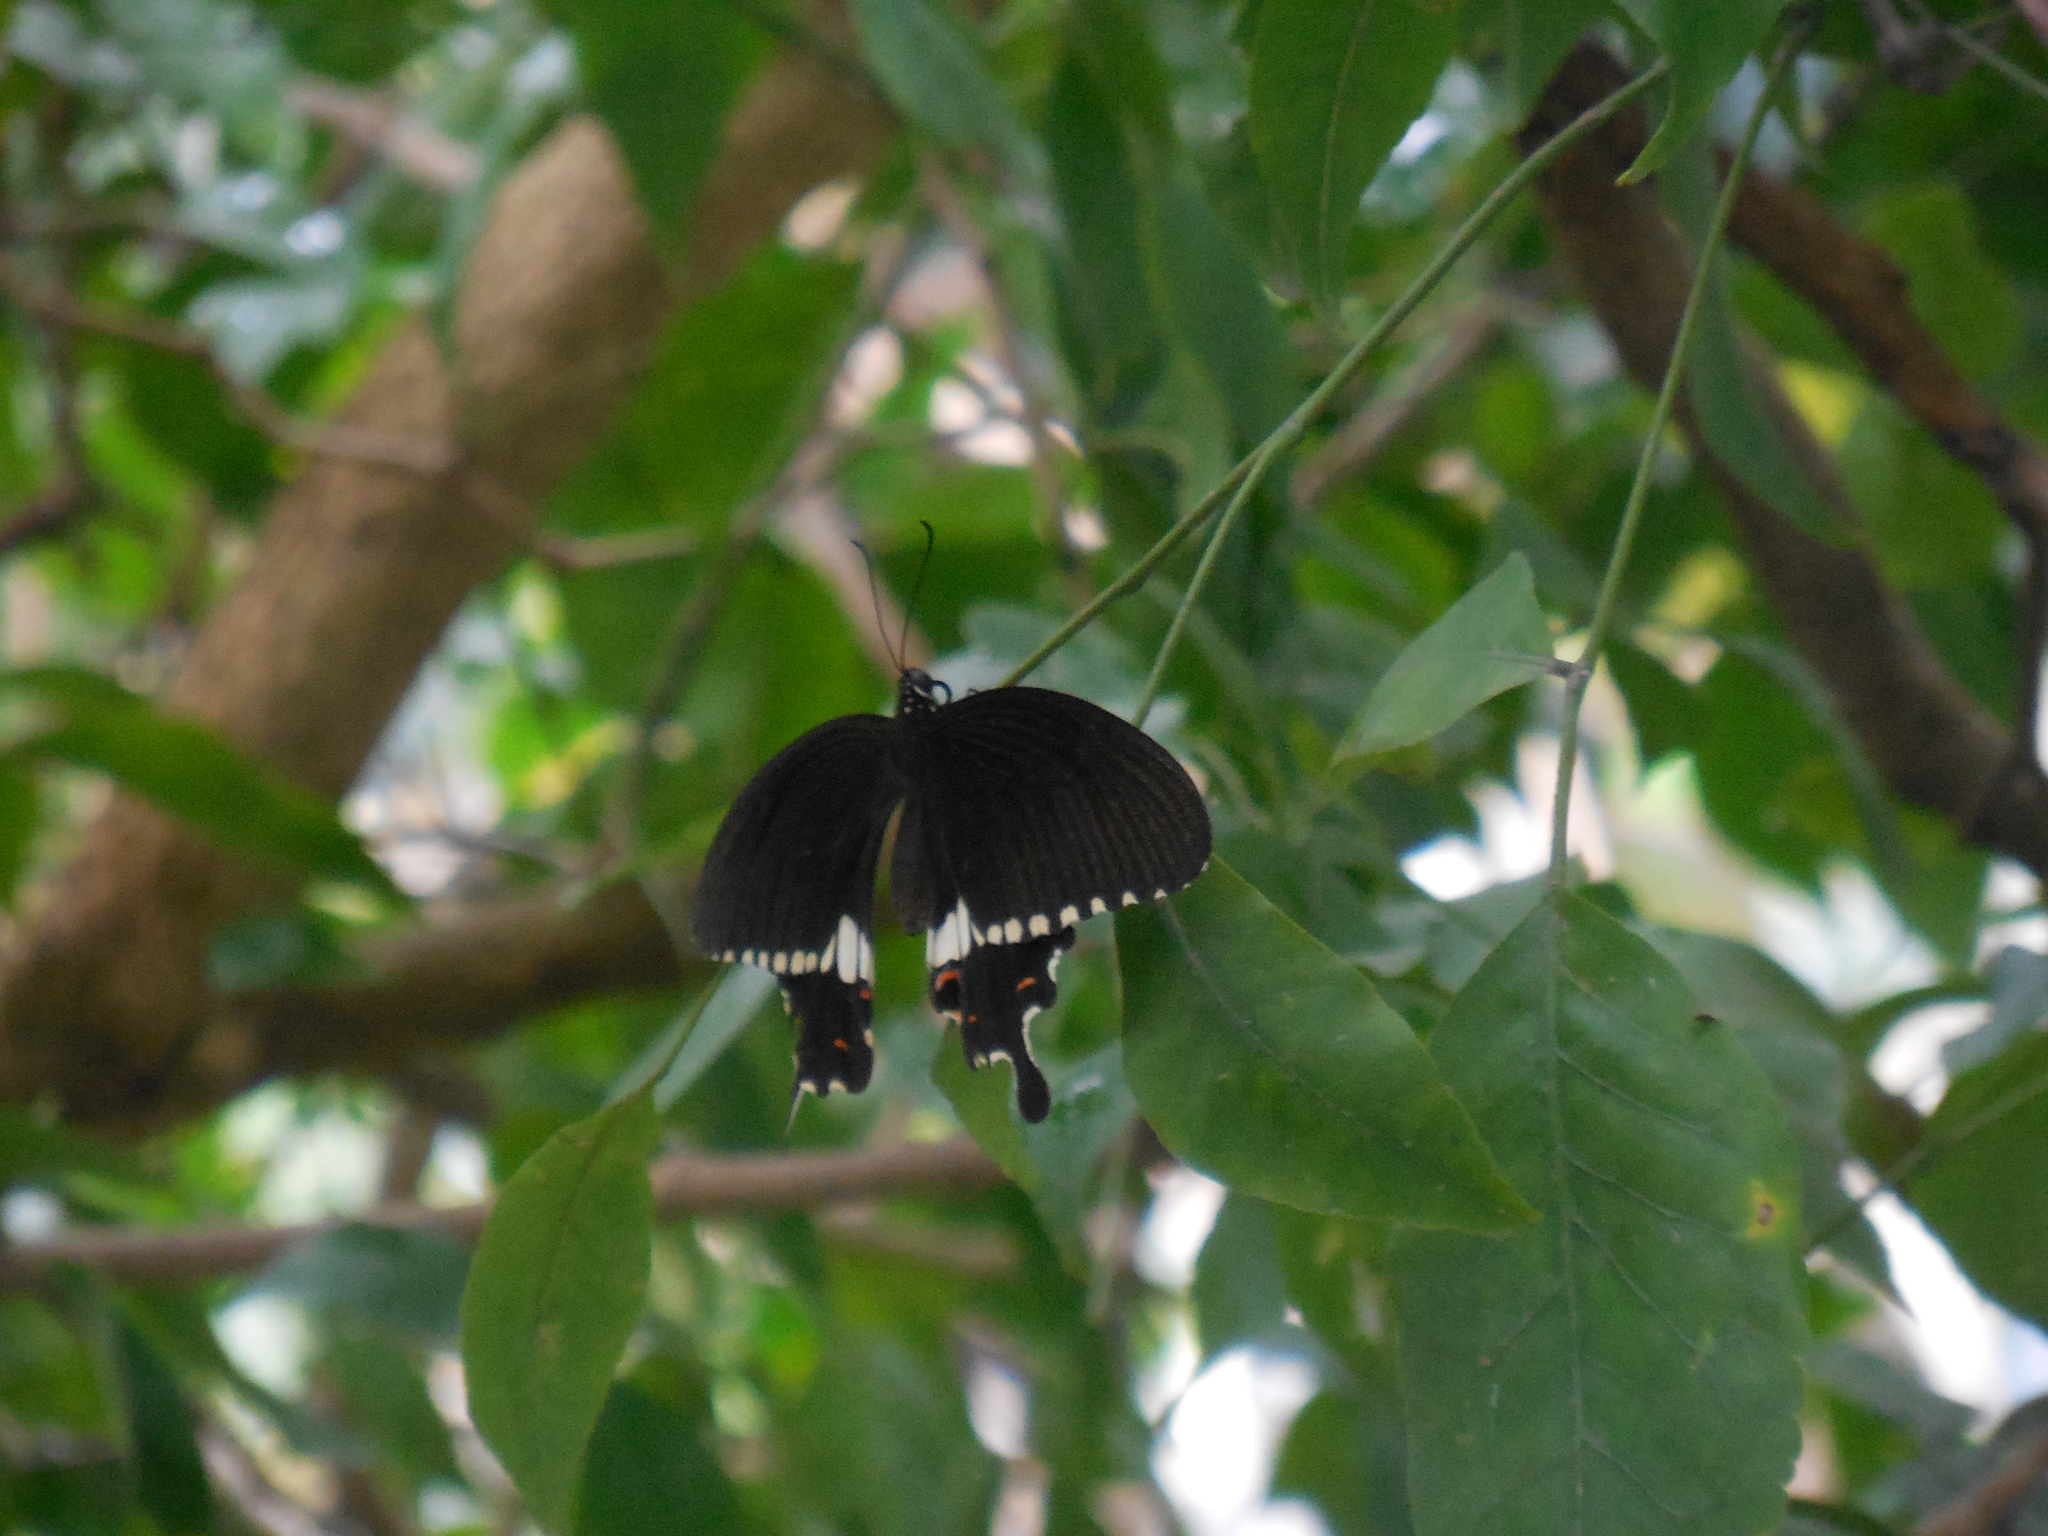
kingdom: Animalia
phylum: Arthropoda
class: Insecta
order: Lepidoptera
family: Papilionidae
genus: Papilio
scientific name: Papilio polytes
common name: Common mormon
